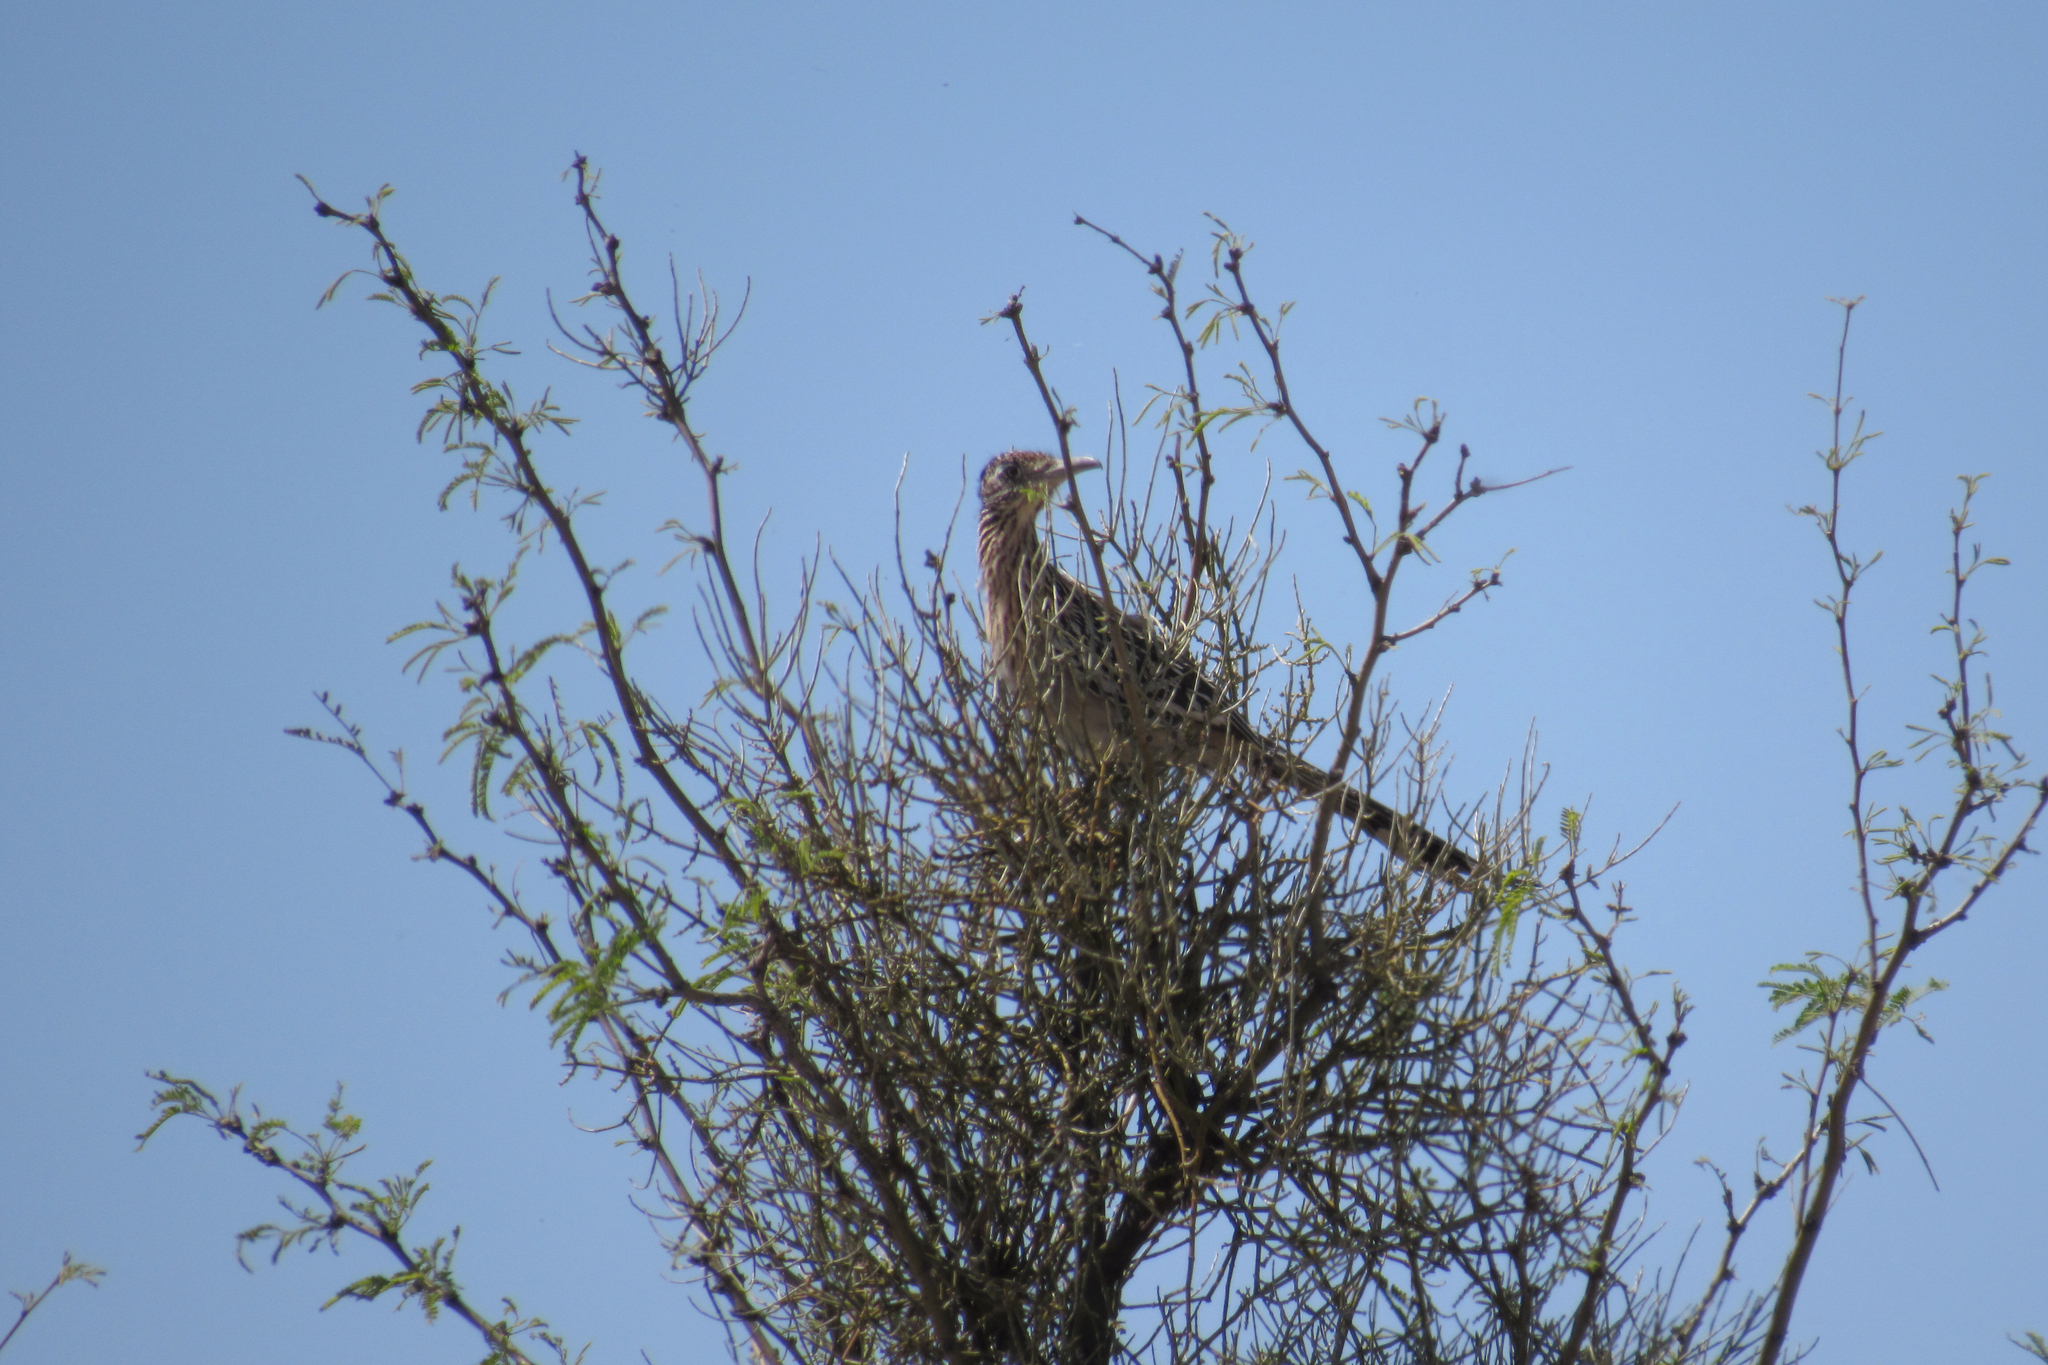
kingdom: Animalia
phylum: Chordata
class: Aves
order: Cuculiformes
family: Cuculidae
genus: Geococcyx
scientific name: Geococcyx californianus
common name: Greater roadrunner
